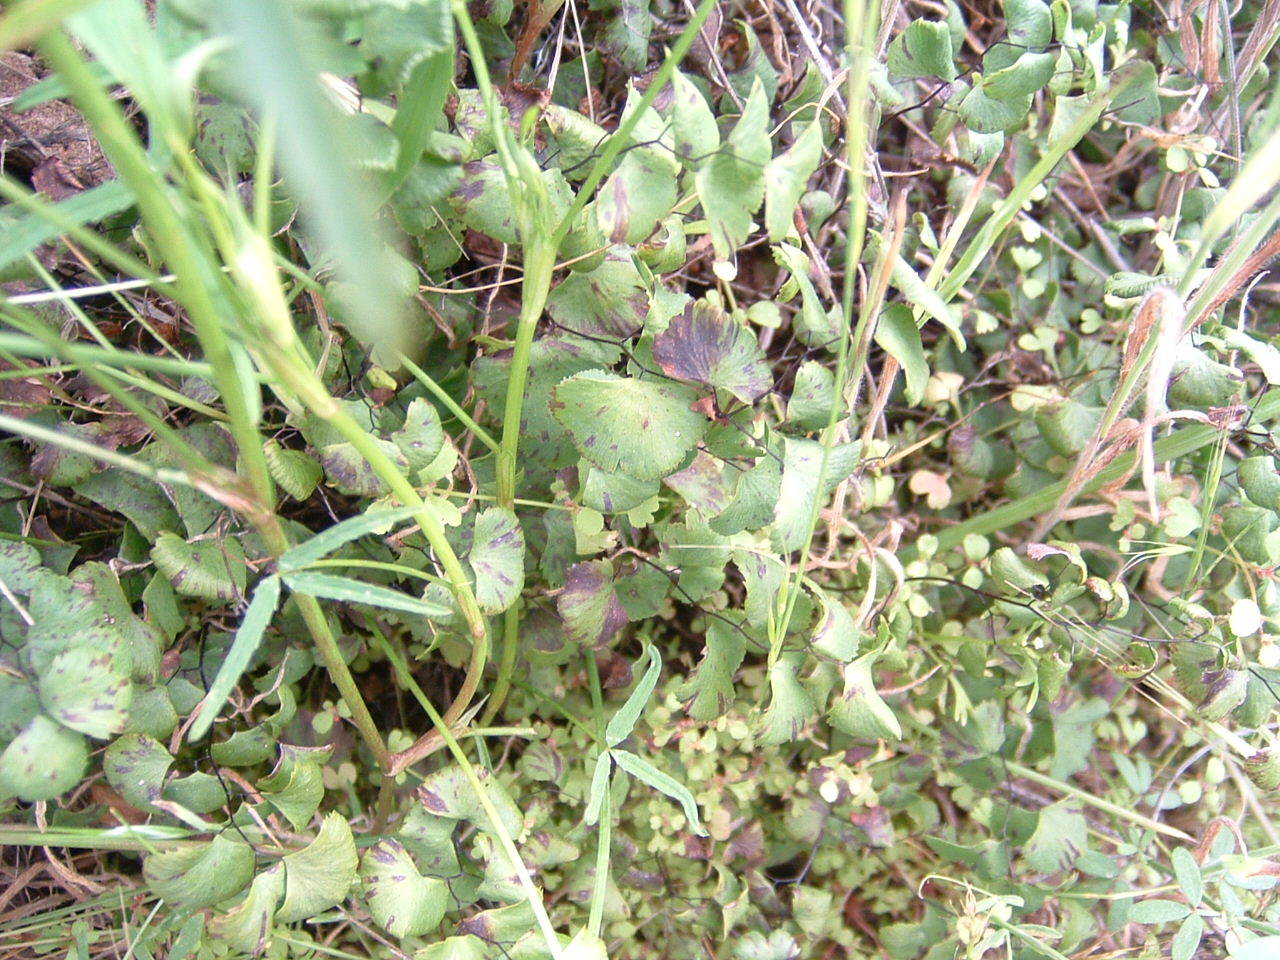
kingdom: Plantae
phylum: Tracheophyta
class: Polypodiopsida
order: Polypodiales
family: Pteridaceae
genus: Adiantum
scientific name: Adiantum jordanii
